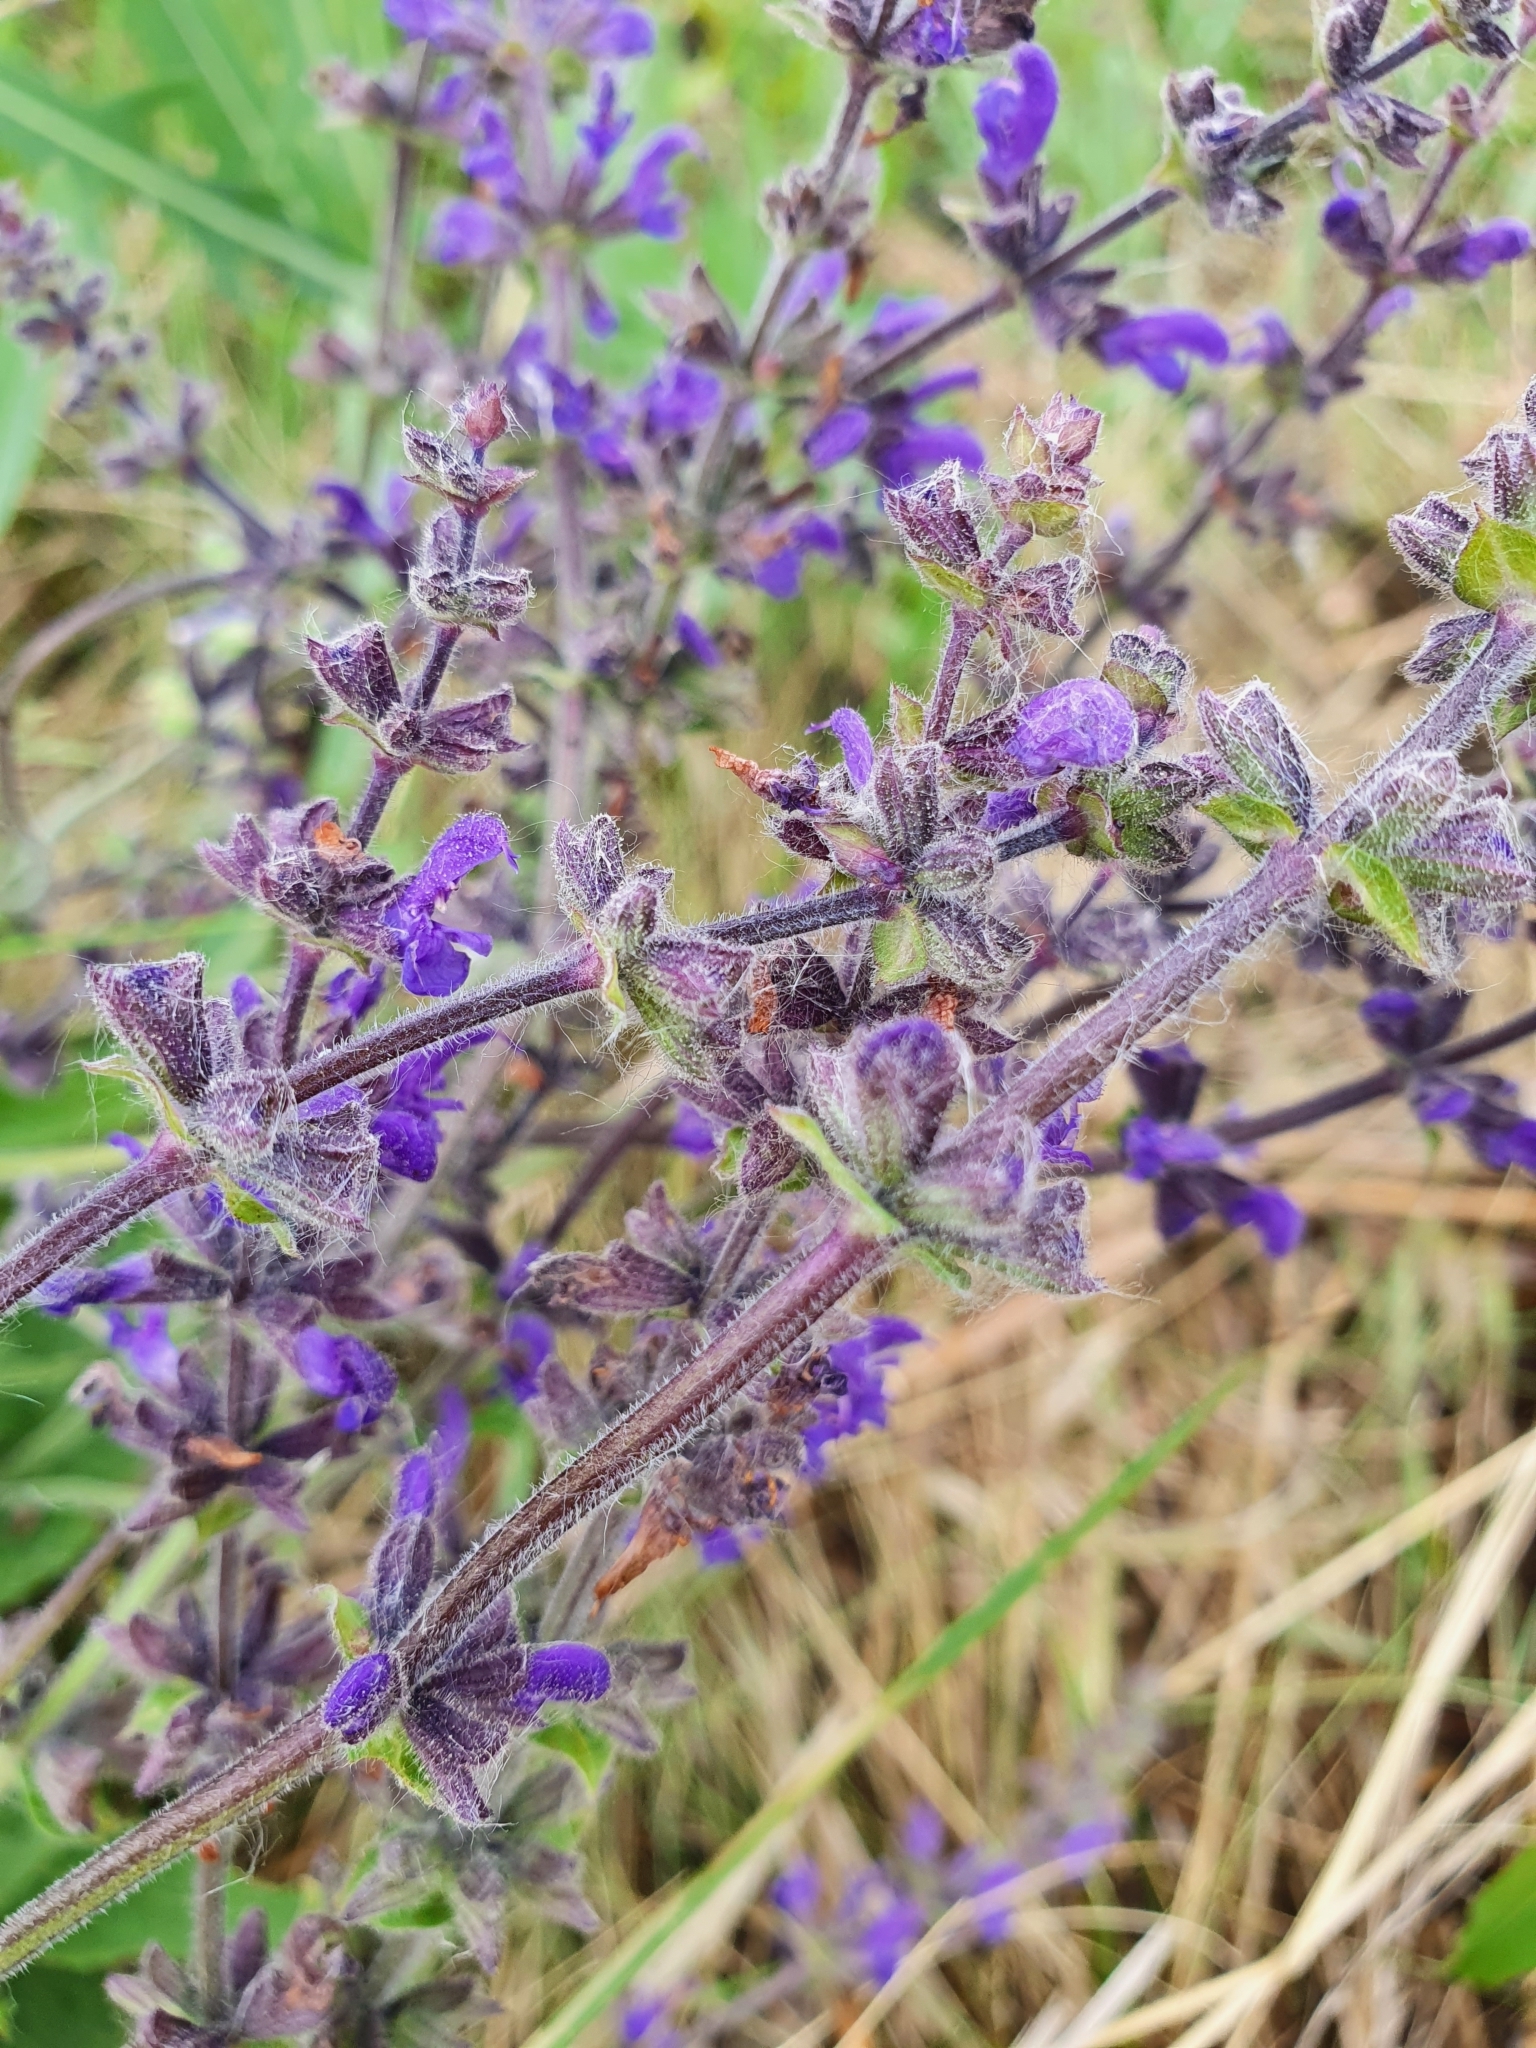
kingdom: Plantae
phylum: Tracheophyta
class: Magnoliopsida
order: Lamiales
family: Lamiaceae
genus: Salvia
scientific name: Salvia dumetorum
